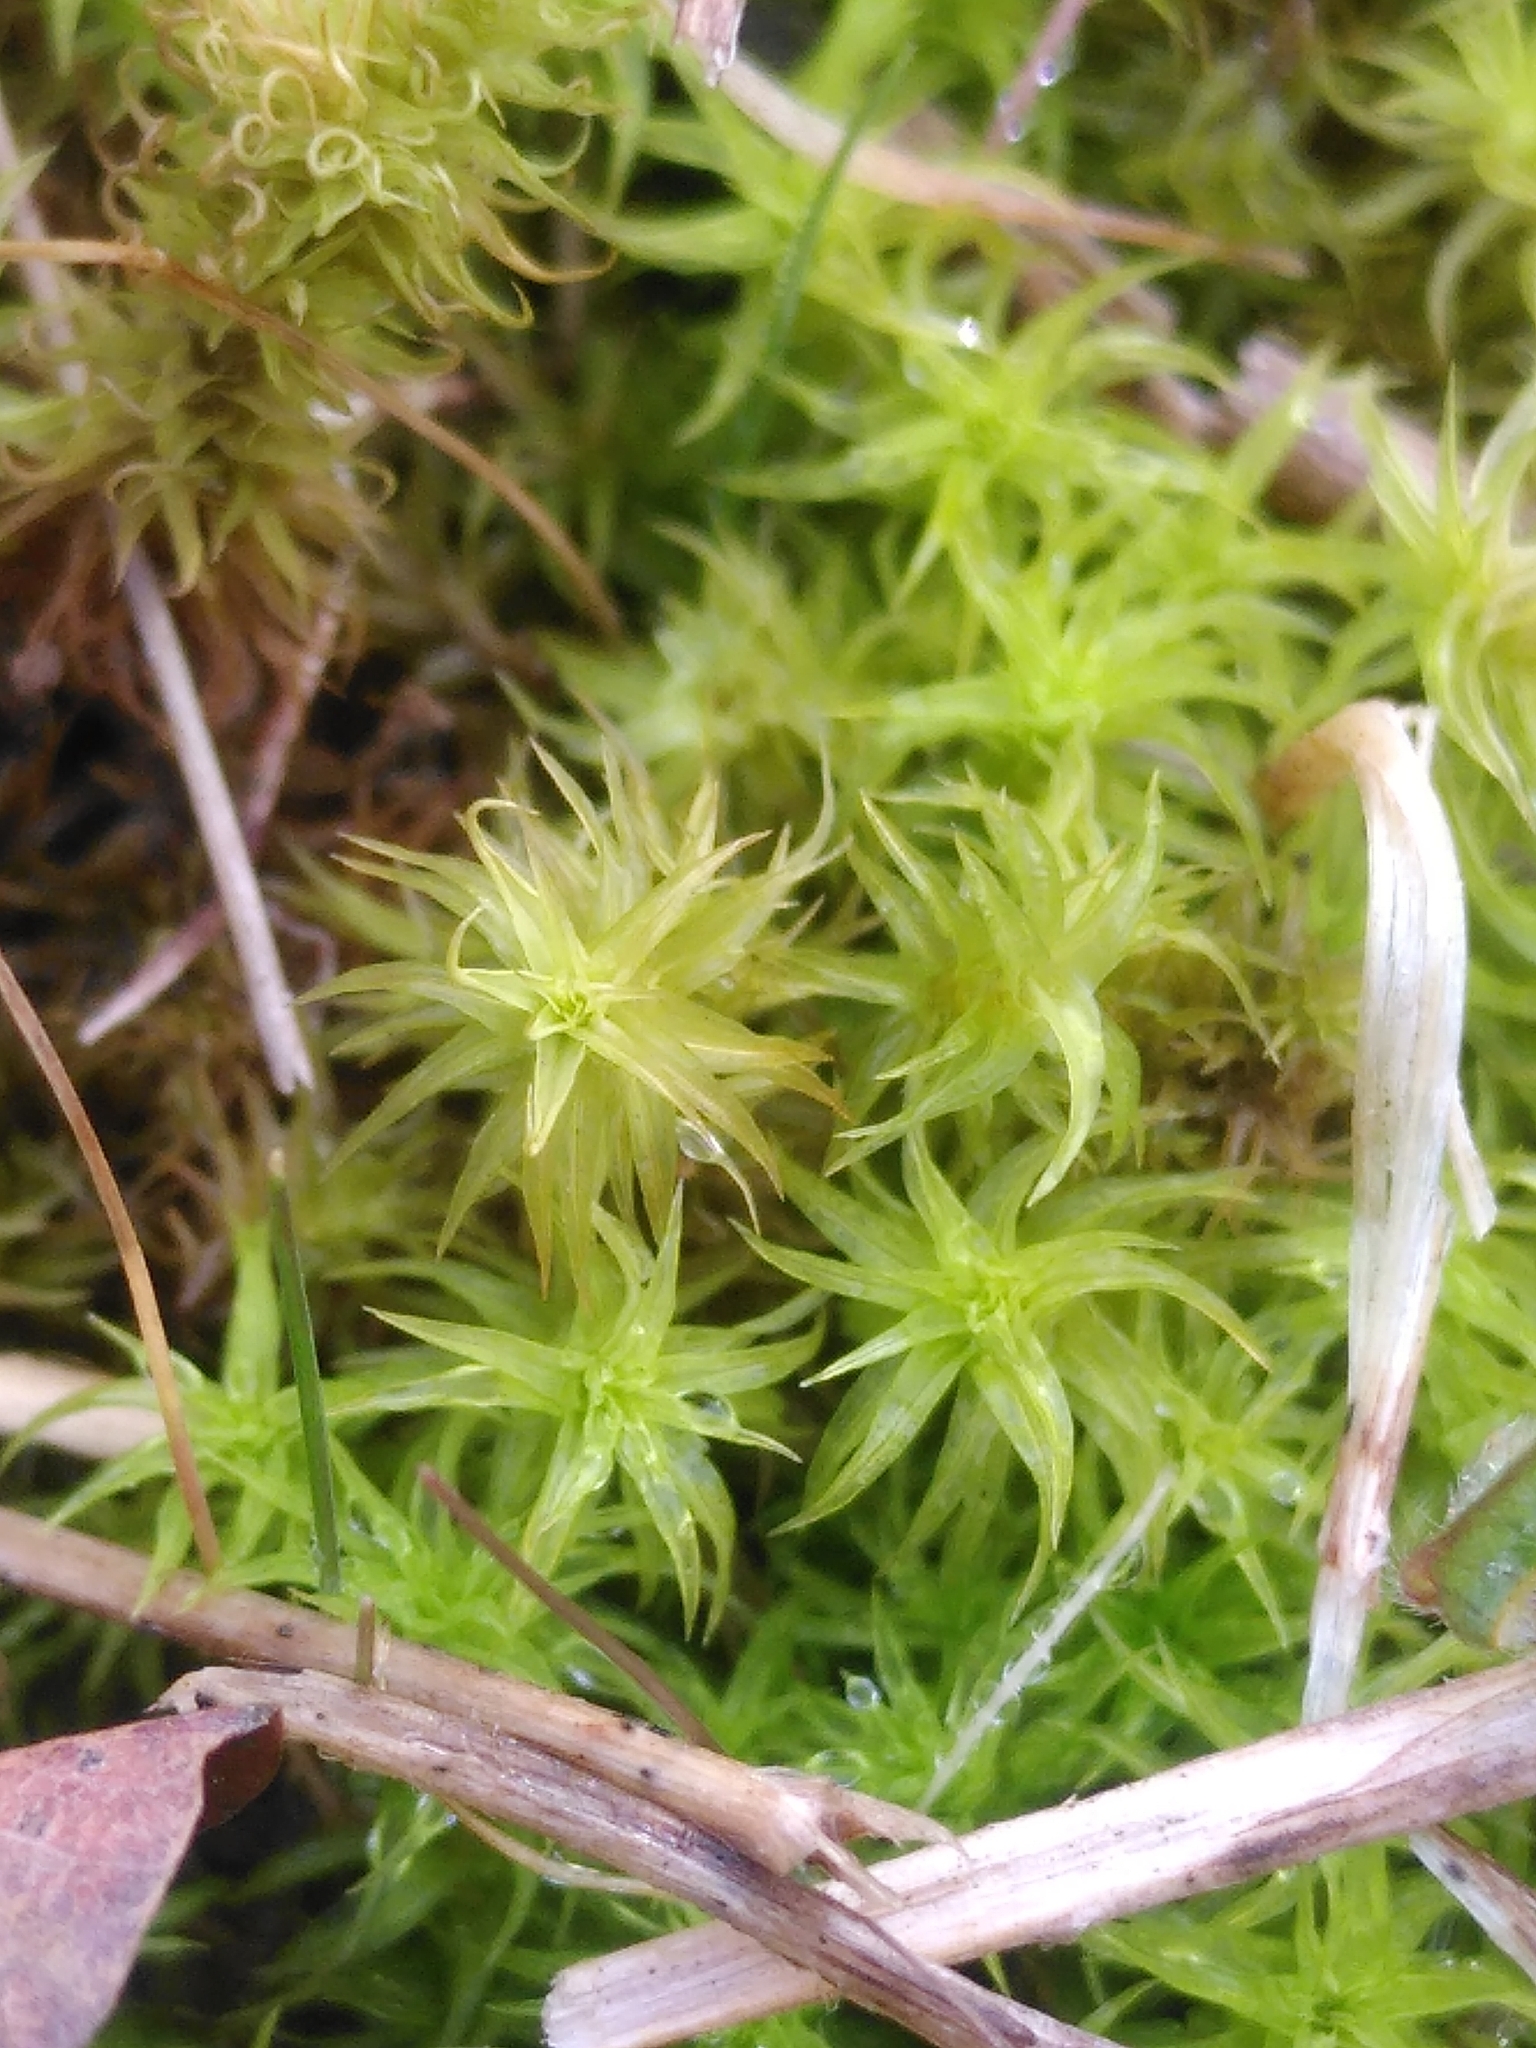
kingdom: Plantae
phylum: Bryophyta
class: Bryopsida
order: Pottiales
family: Pottiaceae
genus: Pleurochaete
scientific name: Pleurochaete squarrosa
